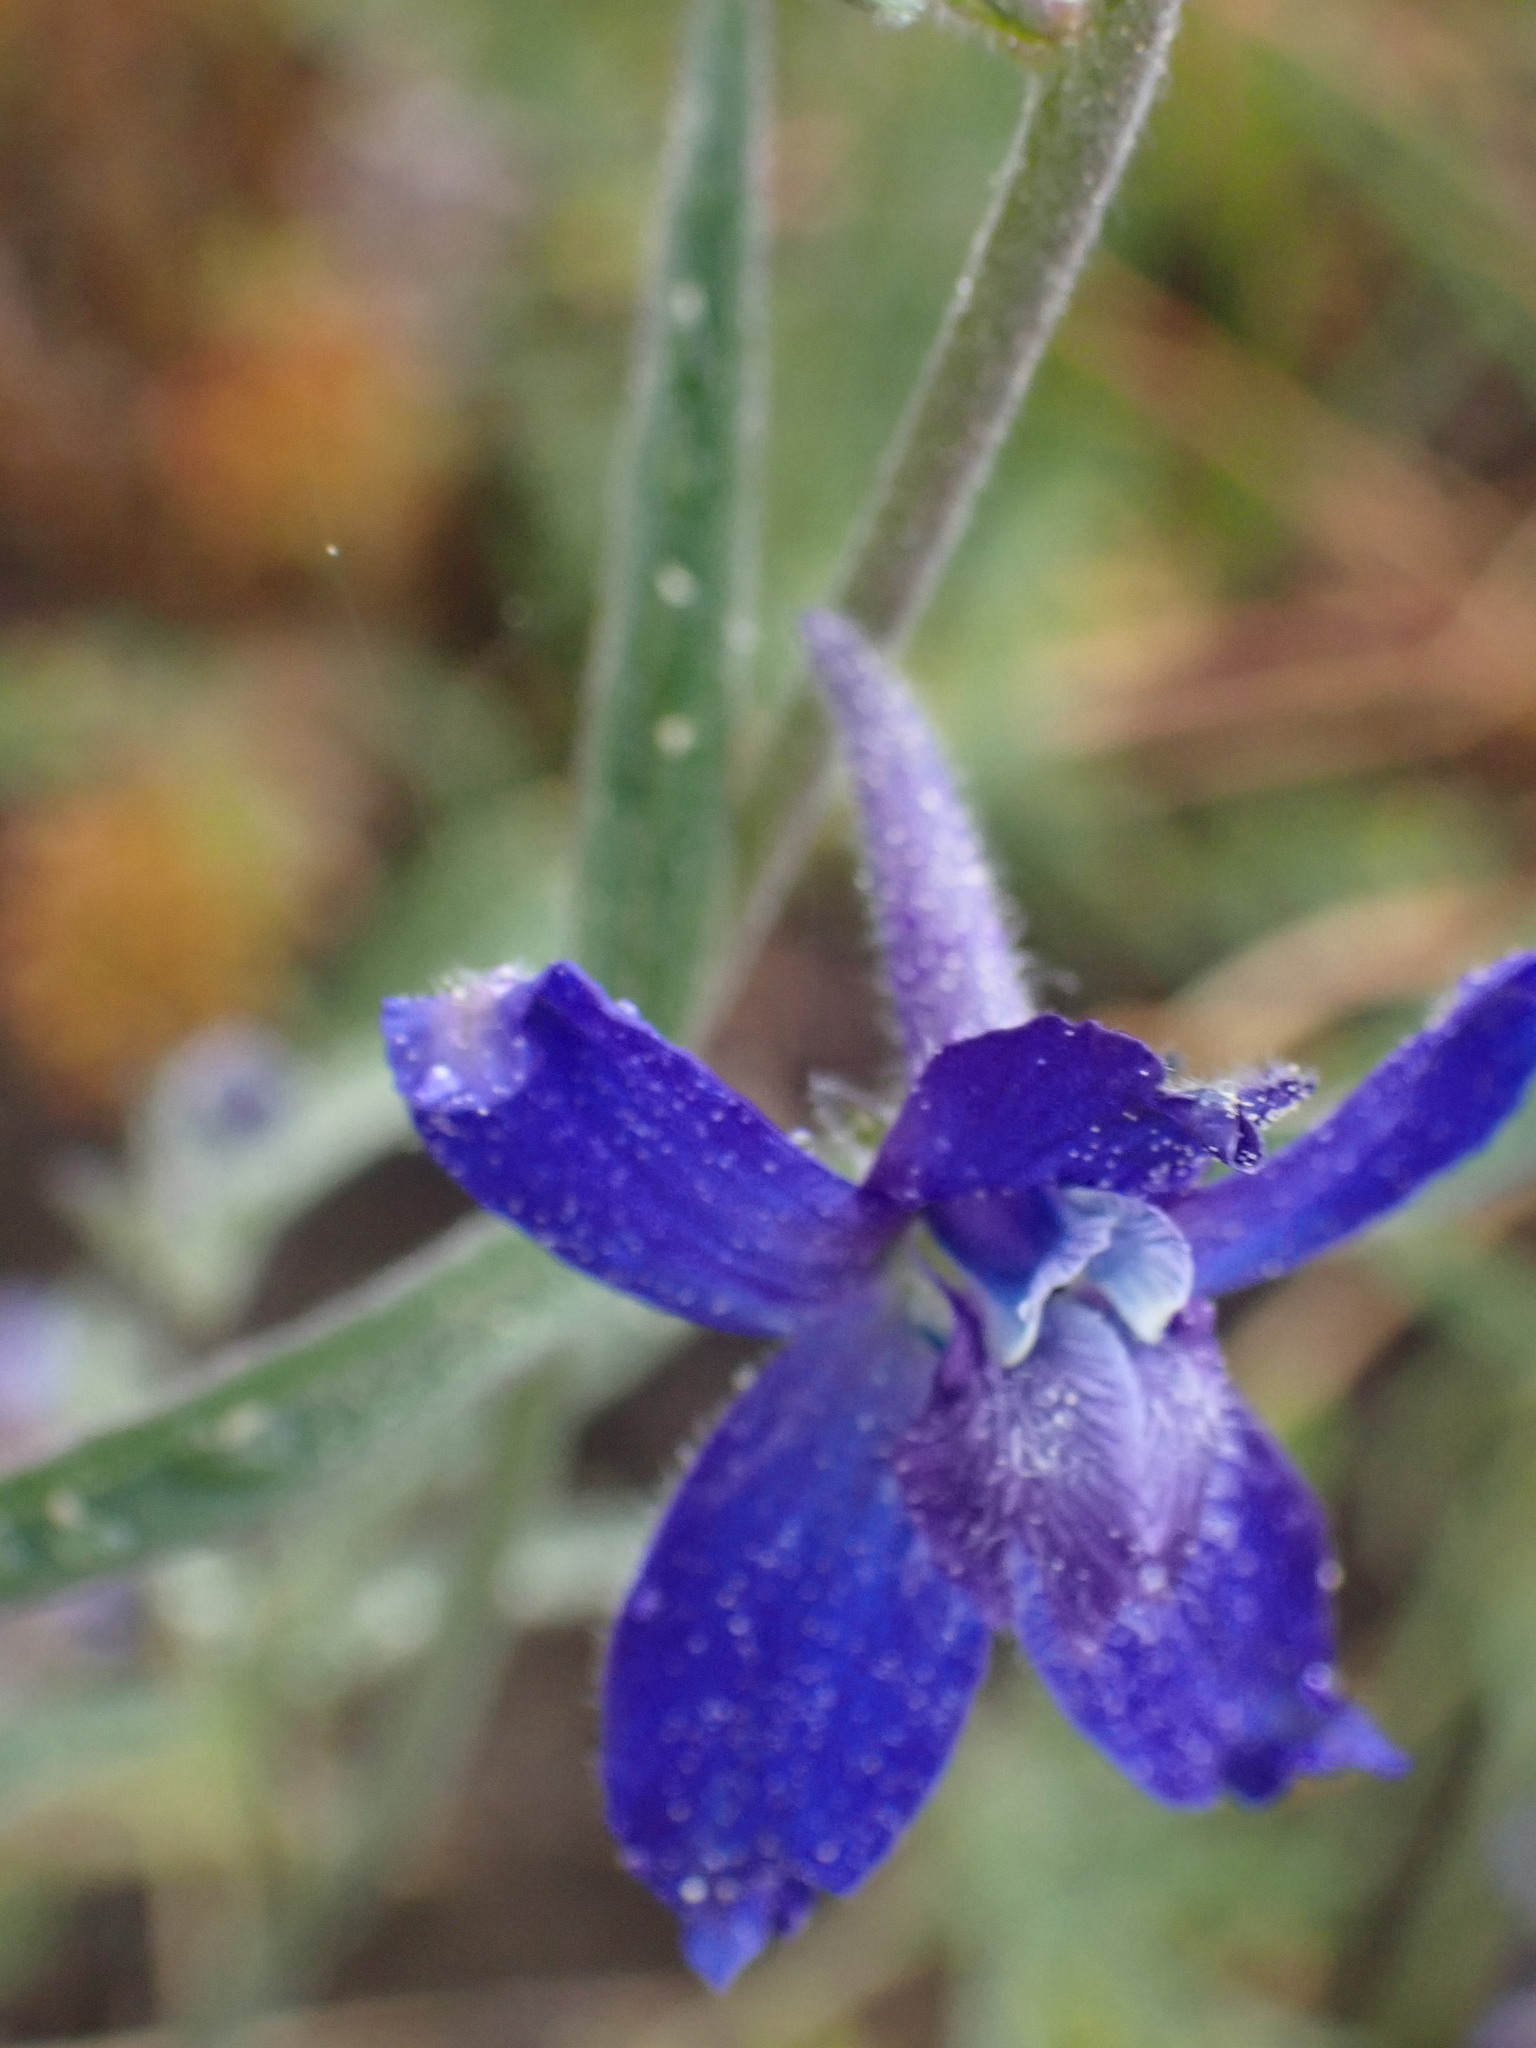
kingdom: Plantae
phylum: Tracheophyta
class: Magnoliopsida
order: Ranunculales
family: Ranunculaceae
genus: Delphinium
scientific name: Delphinium nuttallianum
